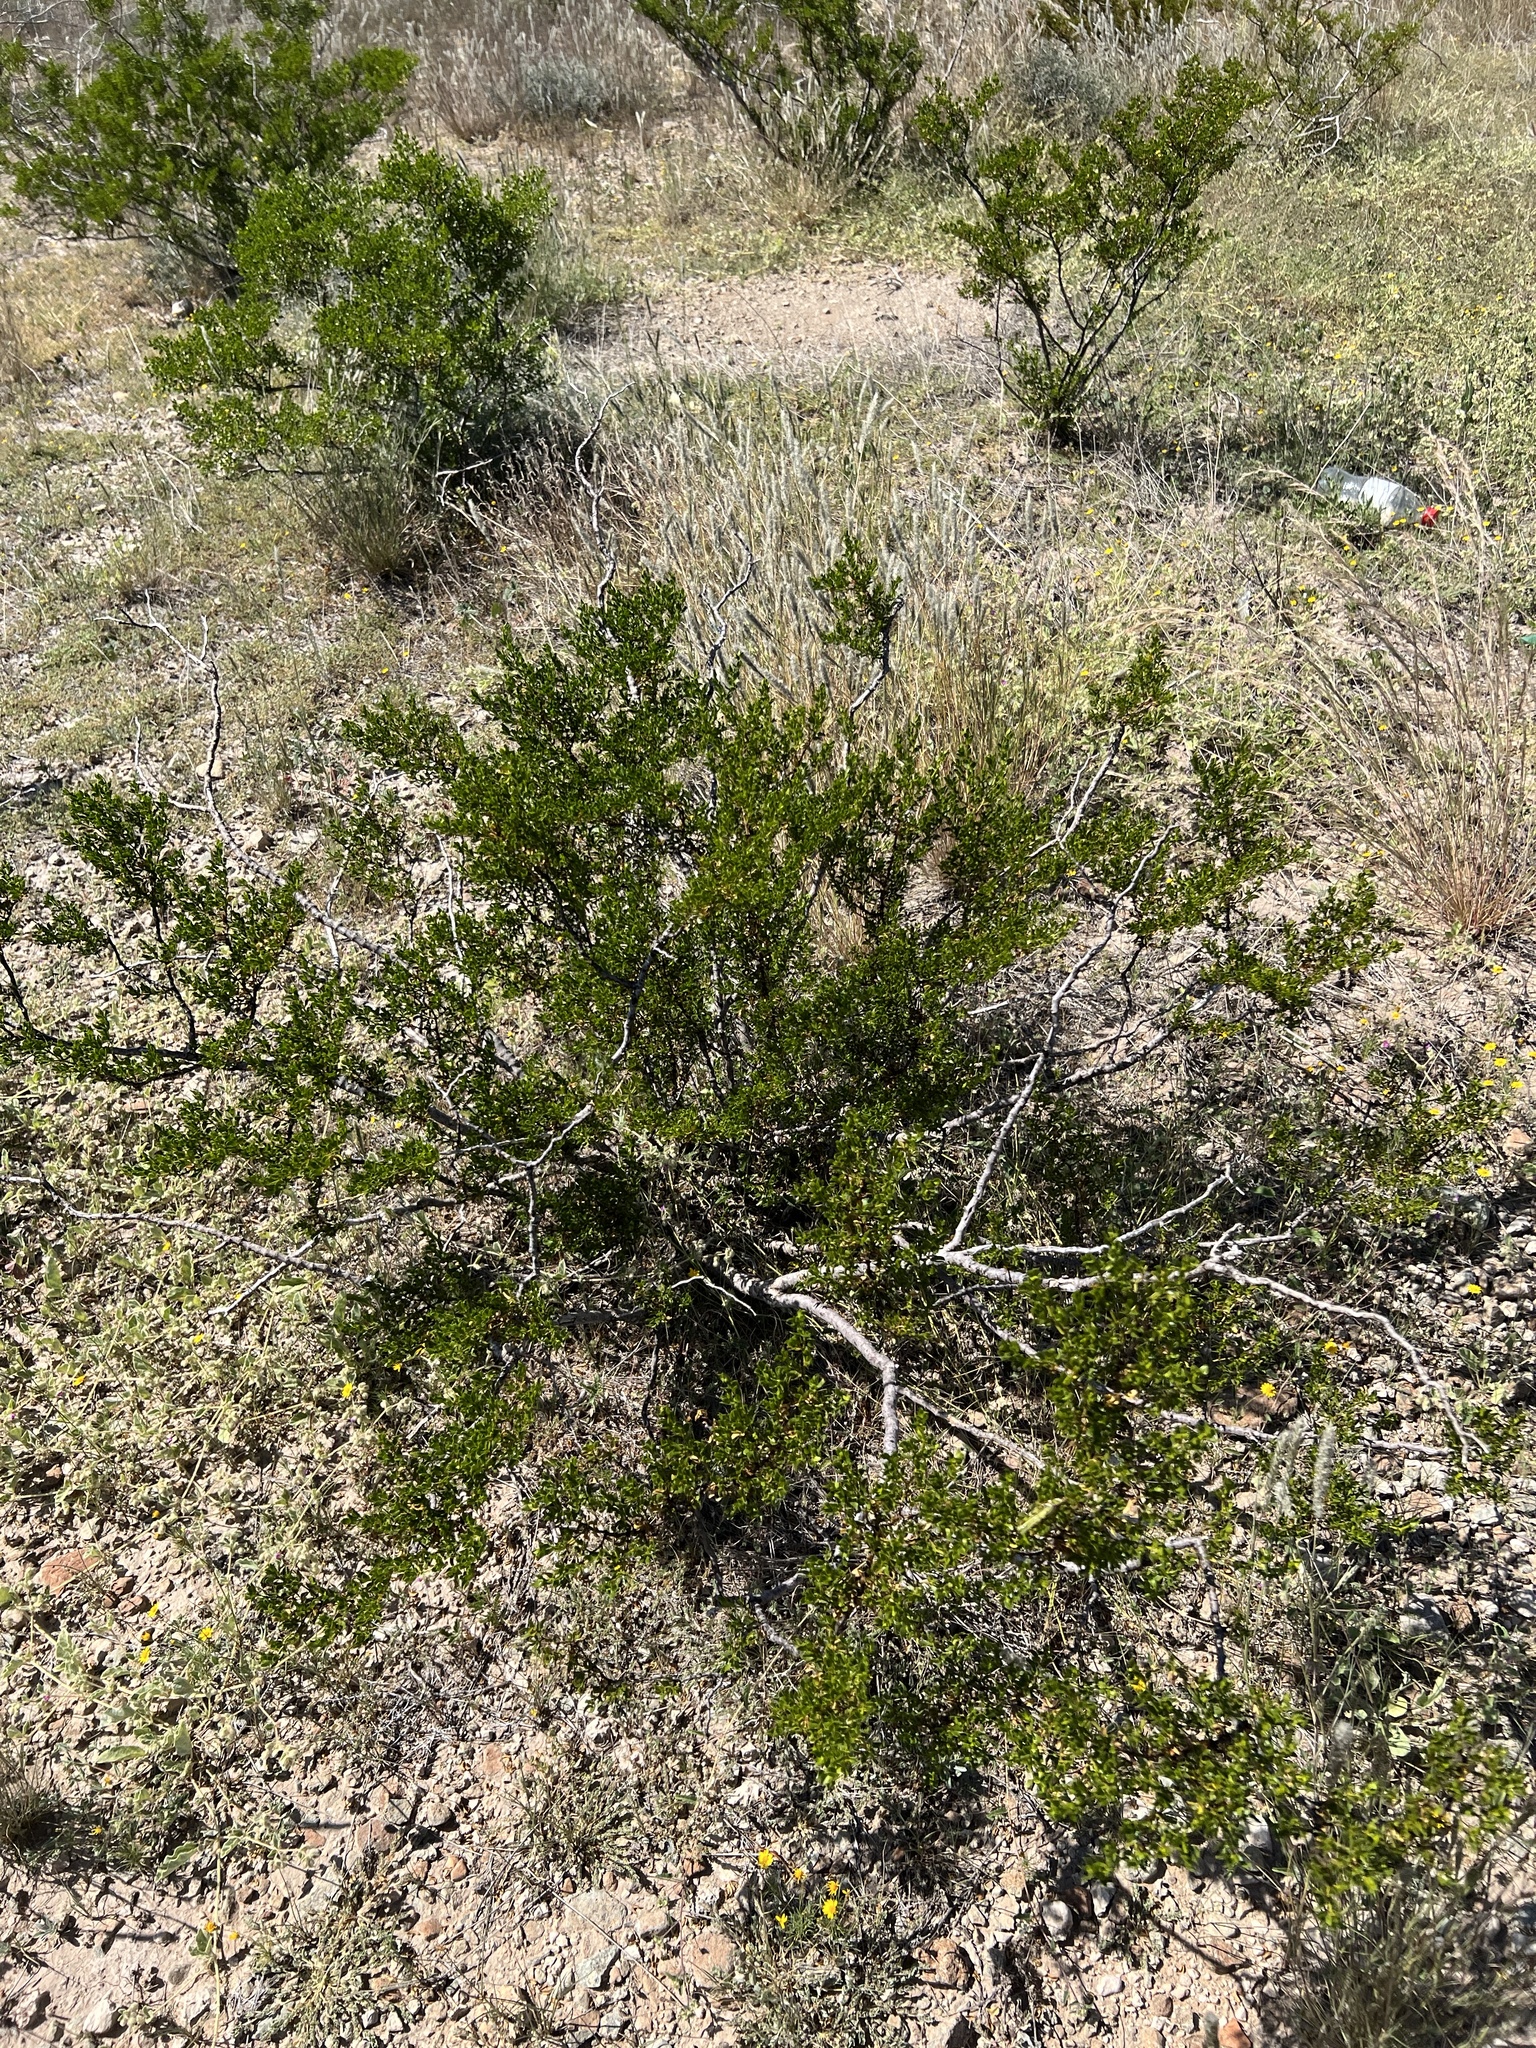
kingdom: Plantae
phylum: Tracheophyta
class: Magnoliopsida
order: Zygophyllales
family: Zygophyllaceae
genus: Larrea
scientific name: Larrea tridentata
